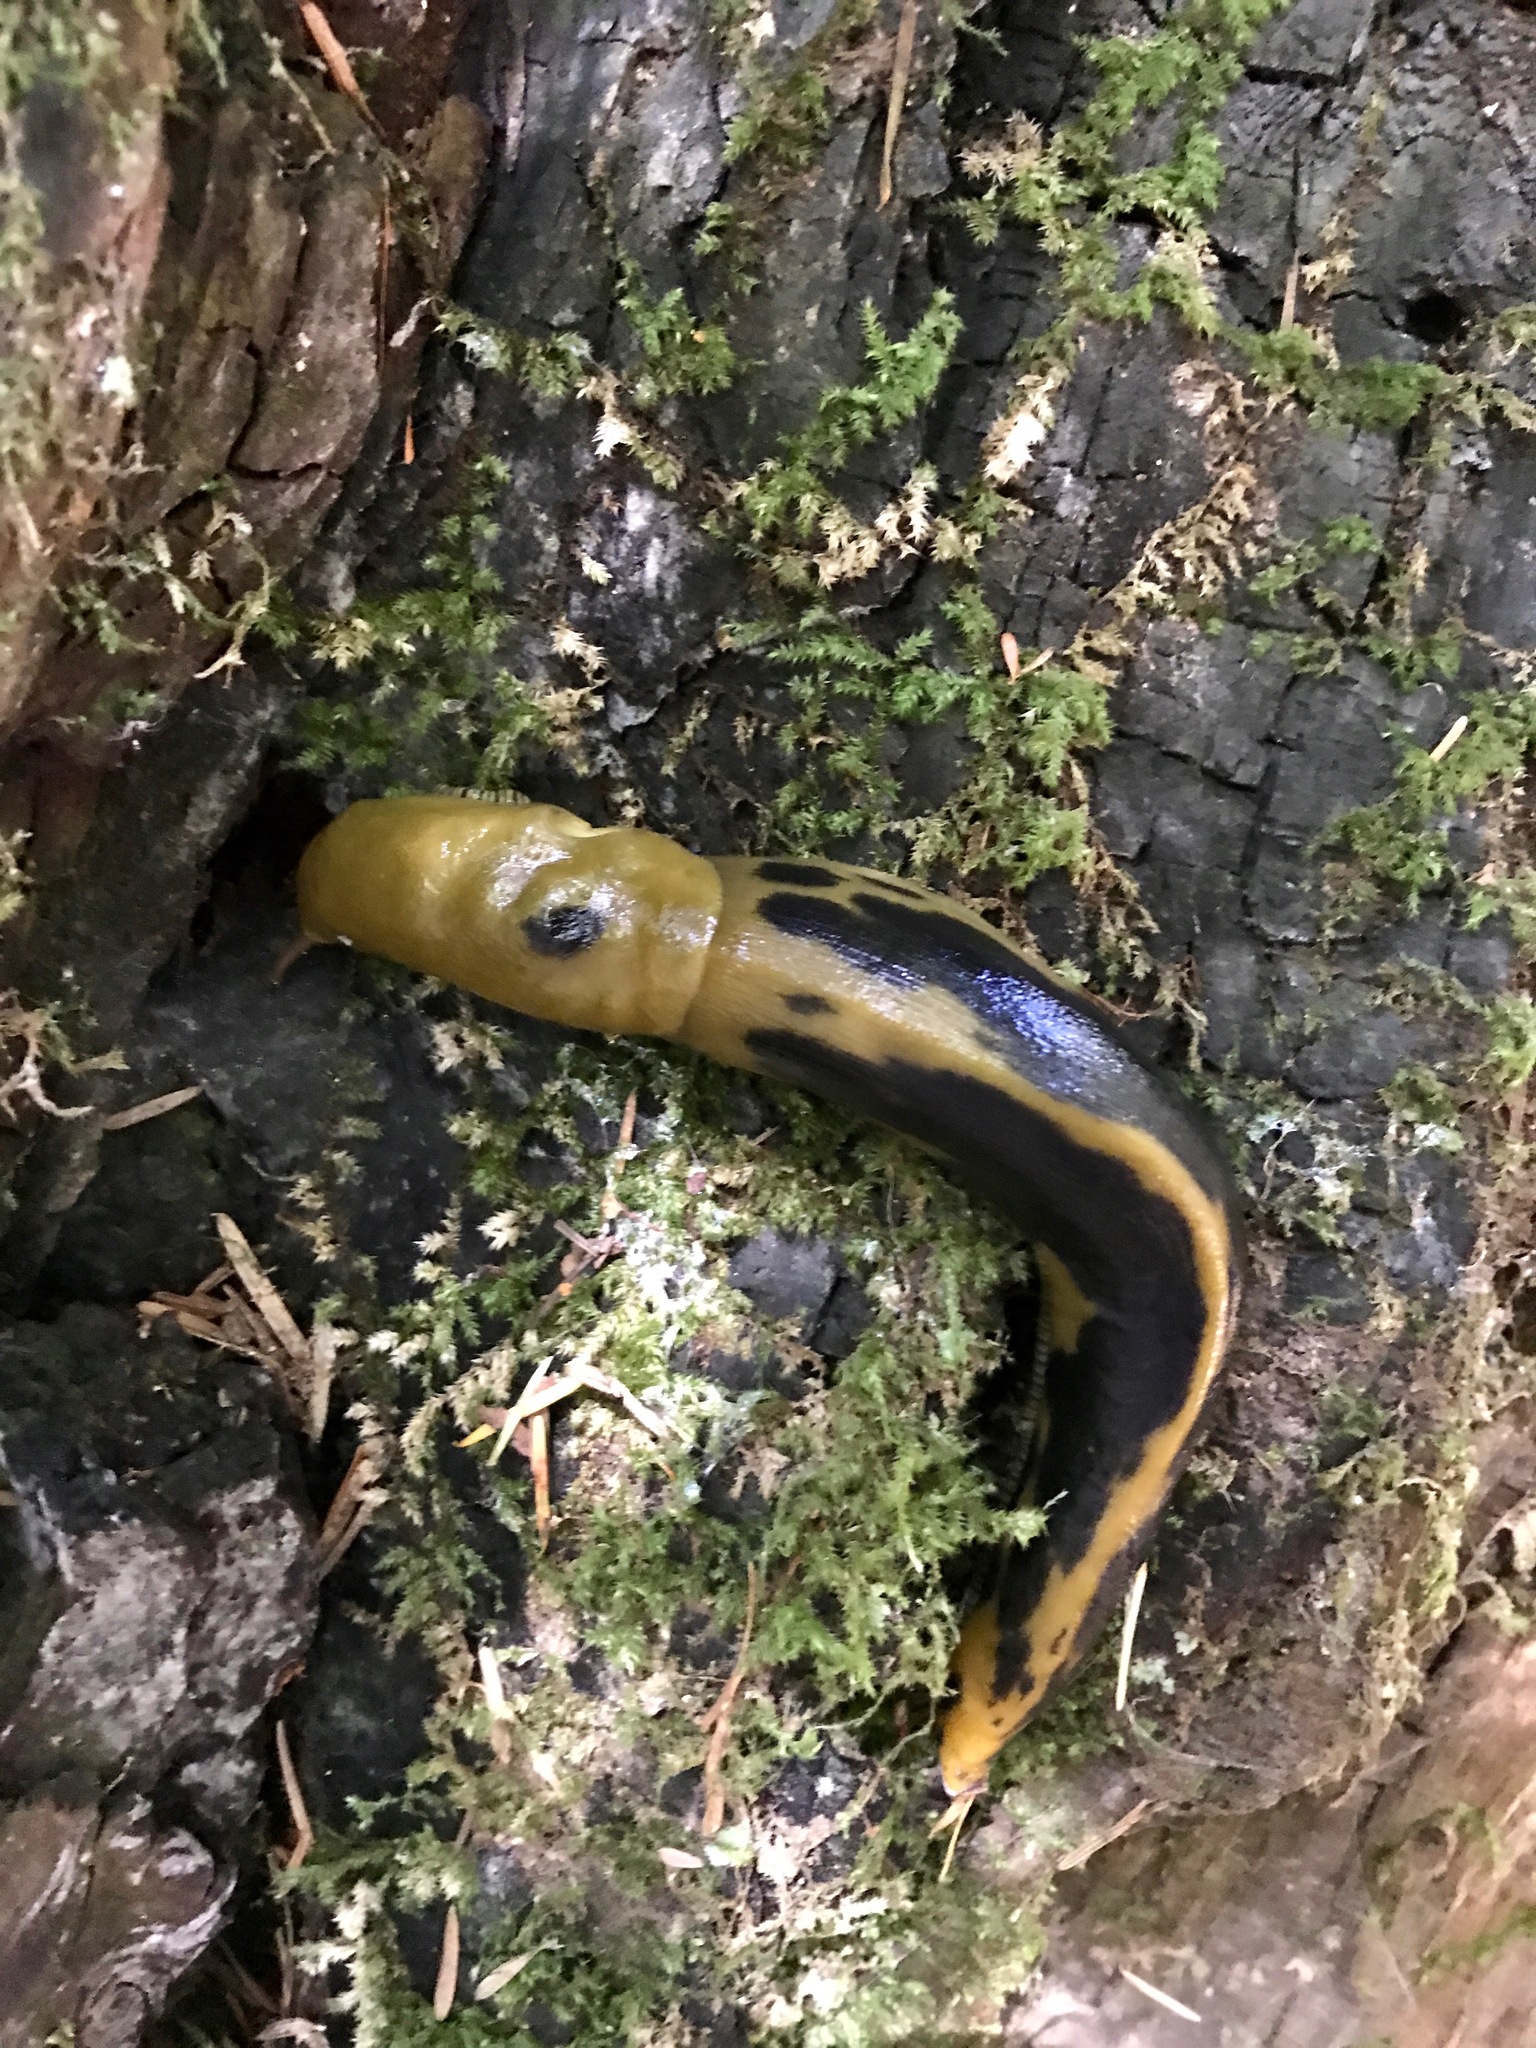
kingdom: Animalia
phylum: Mollusca
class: Gastropoda
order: Stylommatophora
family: Ariolimacidae
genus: Ariolimax
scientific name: Ariolimax buttoni
